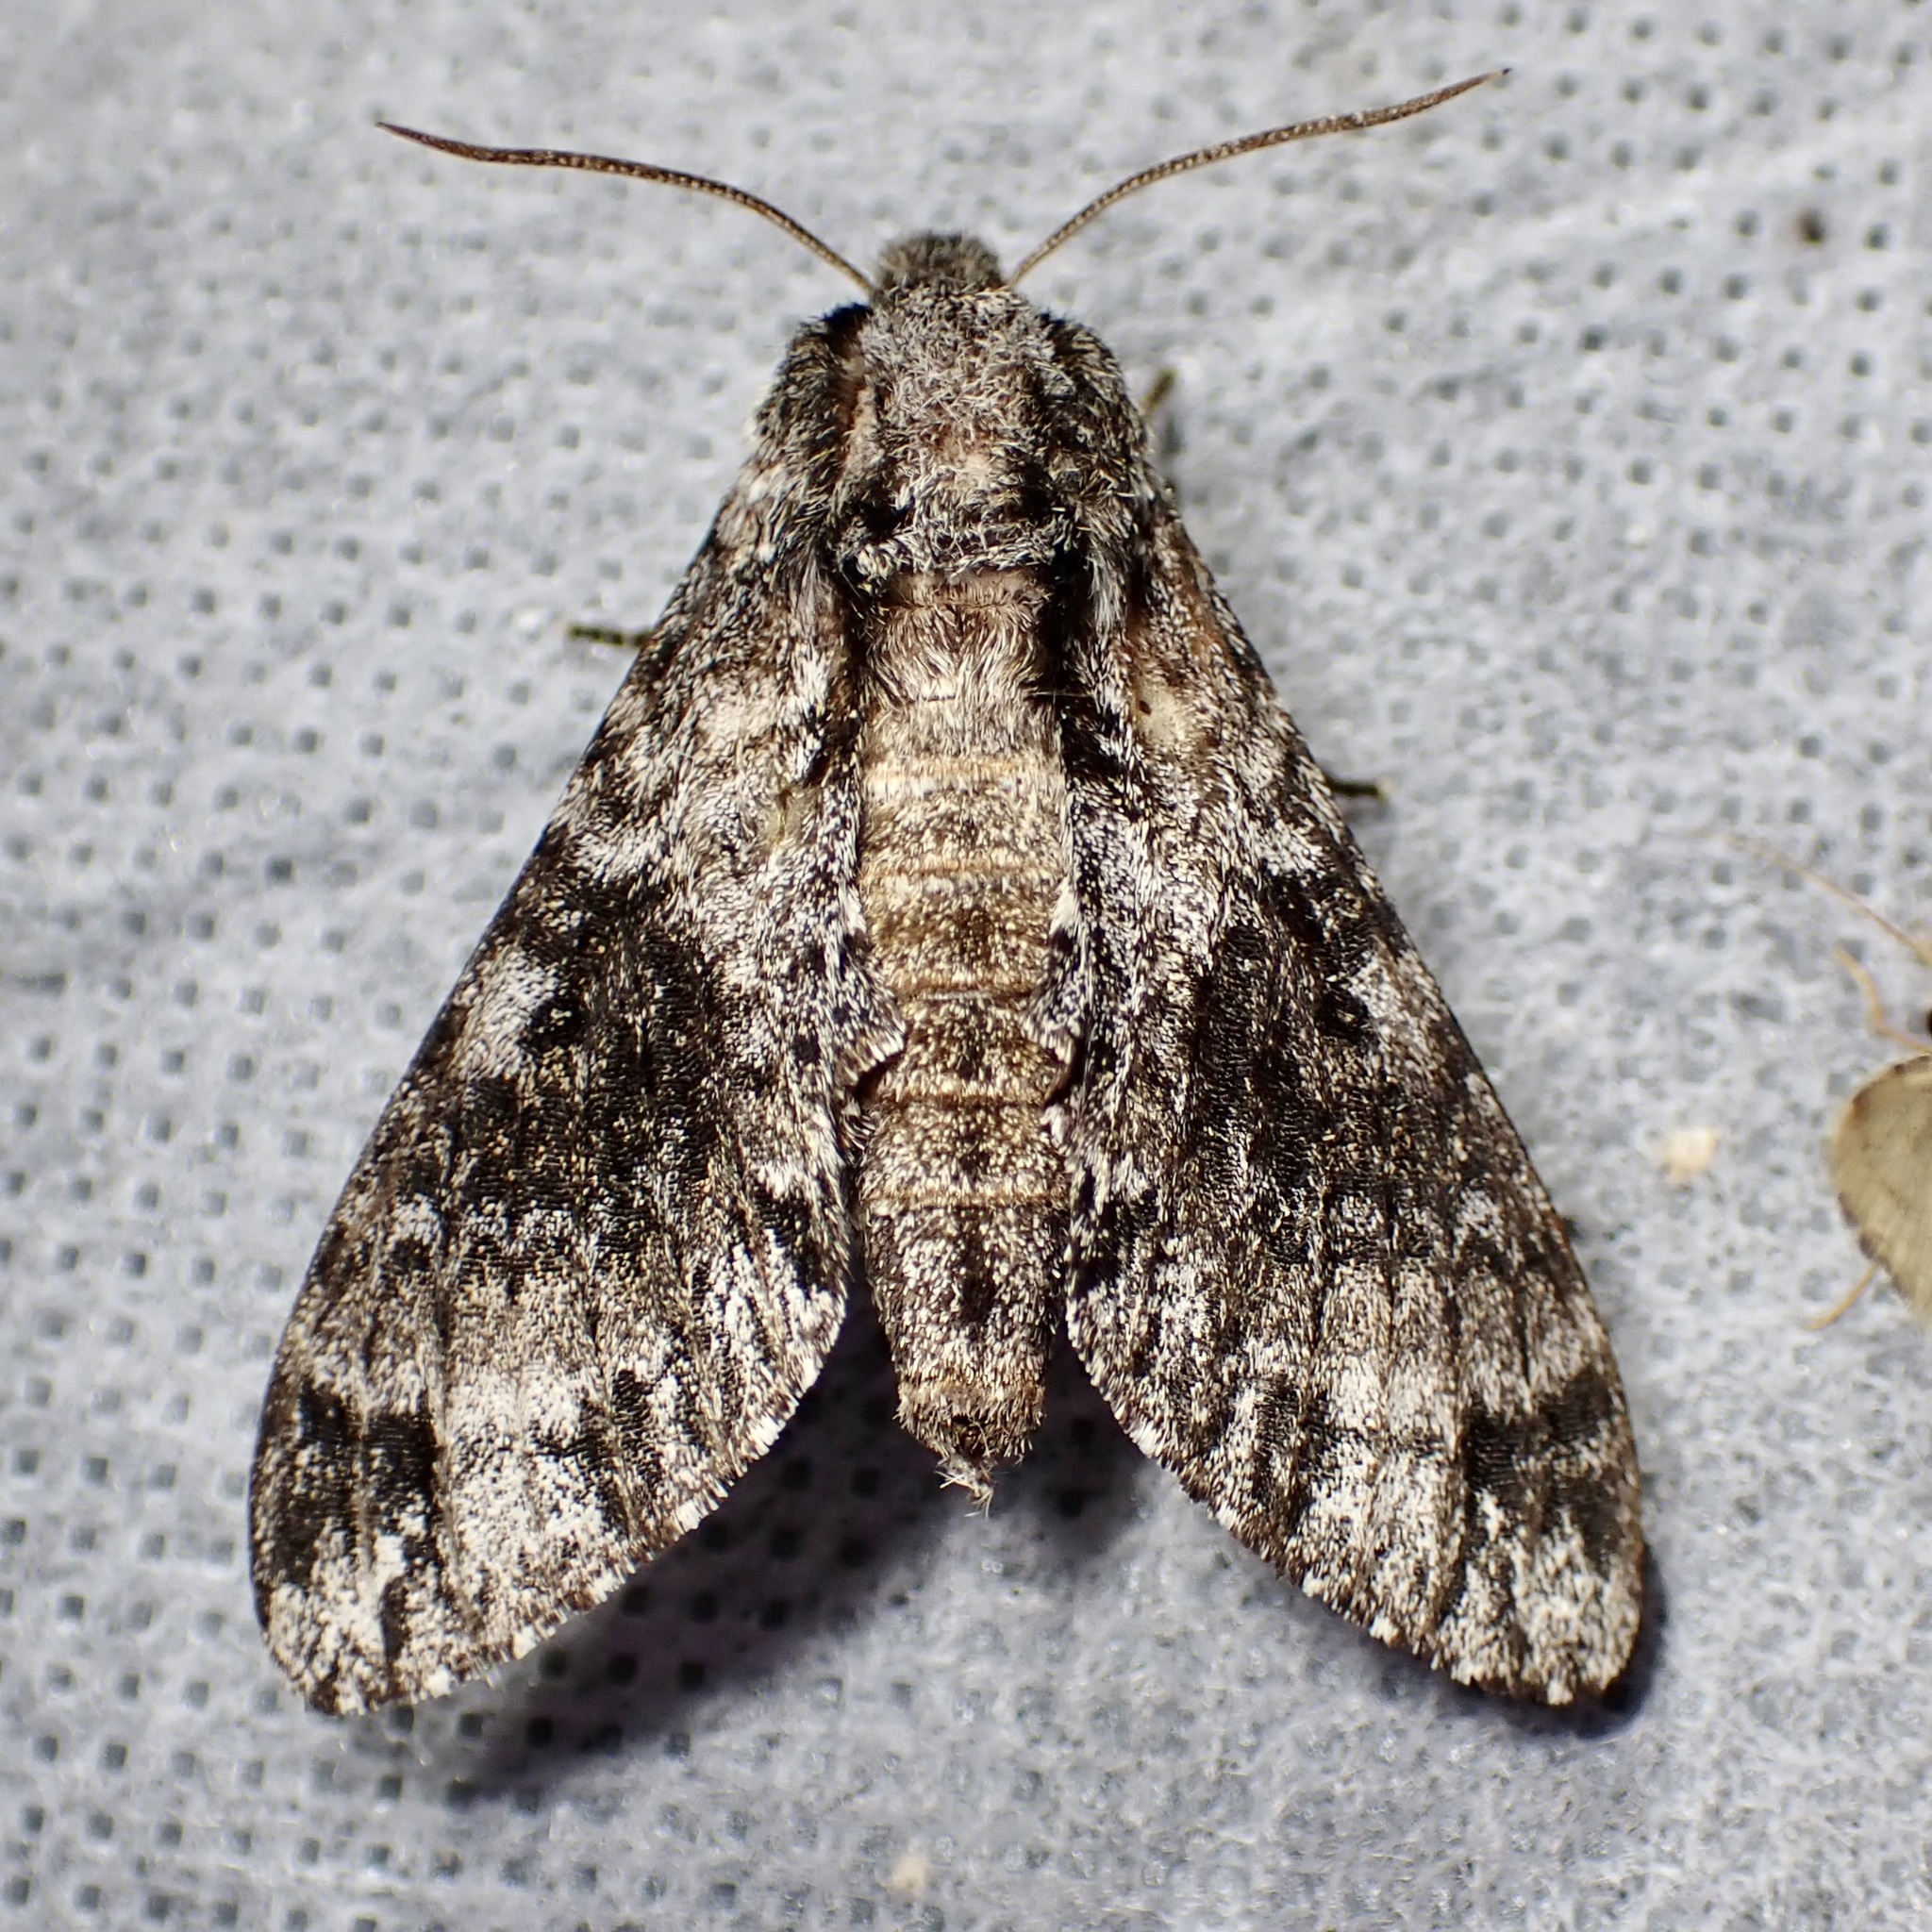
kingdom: Animalia
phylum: Arthropoda
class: Insecta
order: Lepidoptera
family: Sphingidae
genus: Dolbogene
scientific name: Dolbogene hartwegii
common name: Hartweg's sphinx
